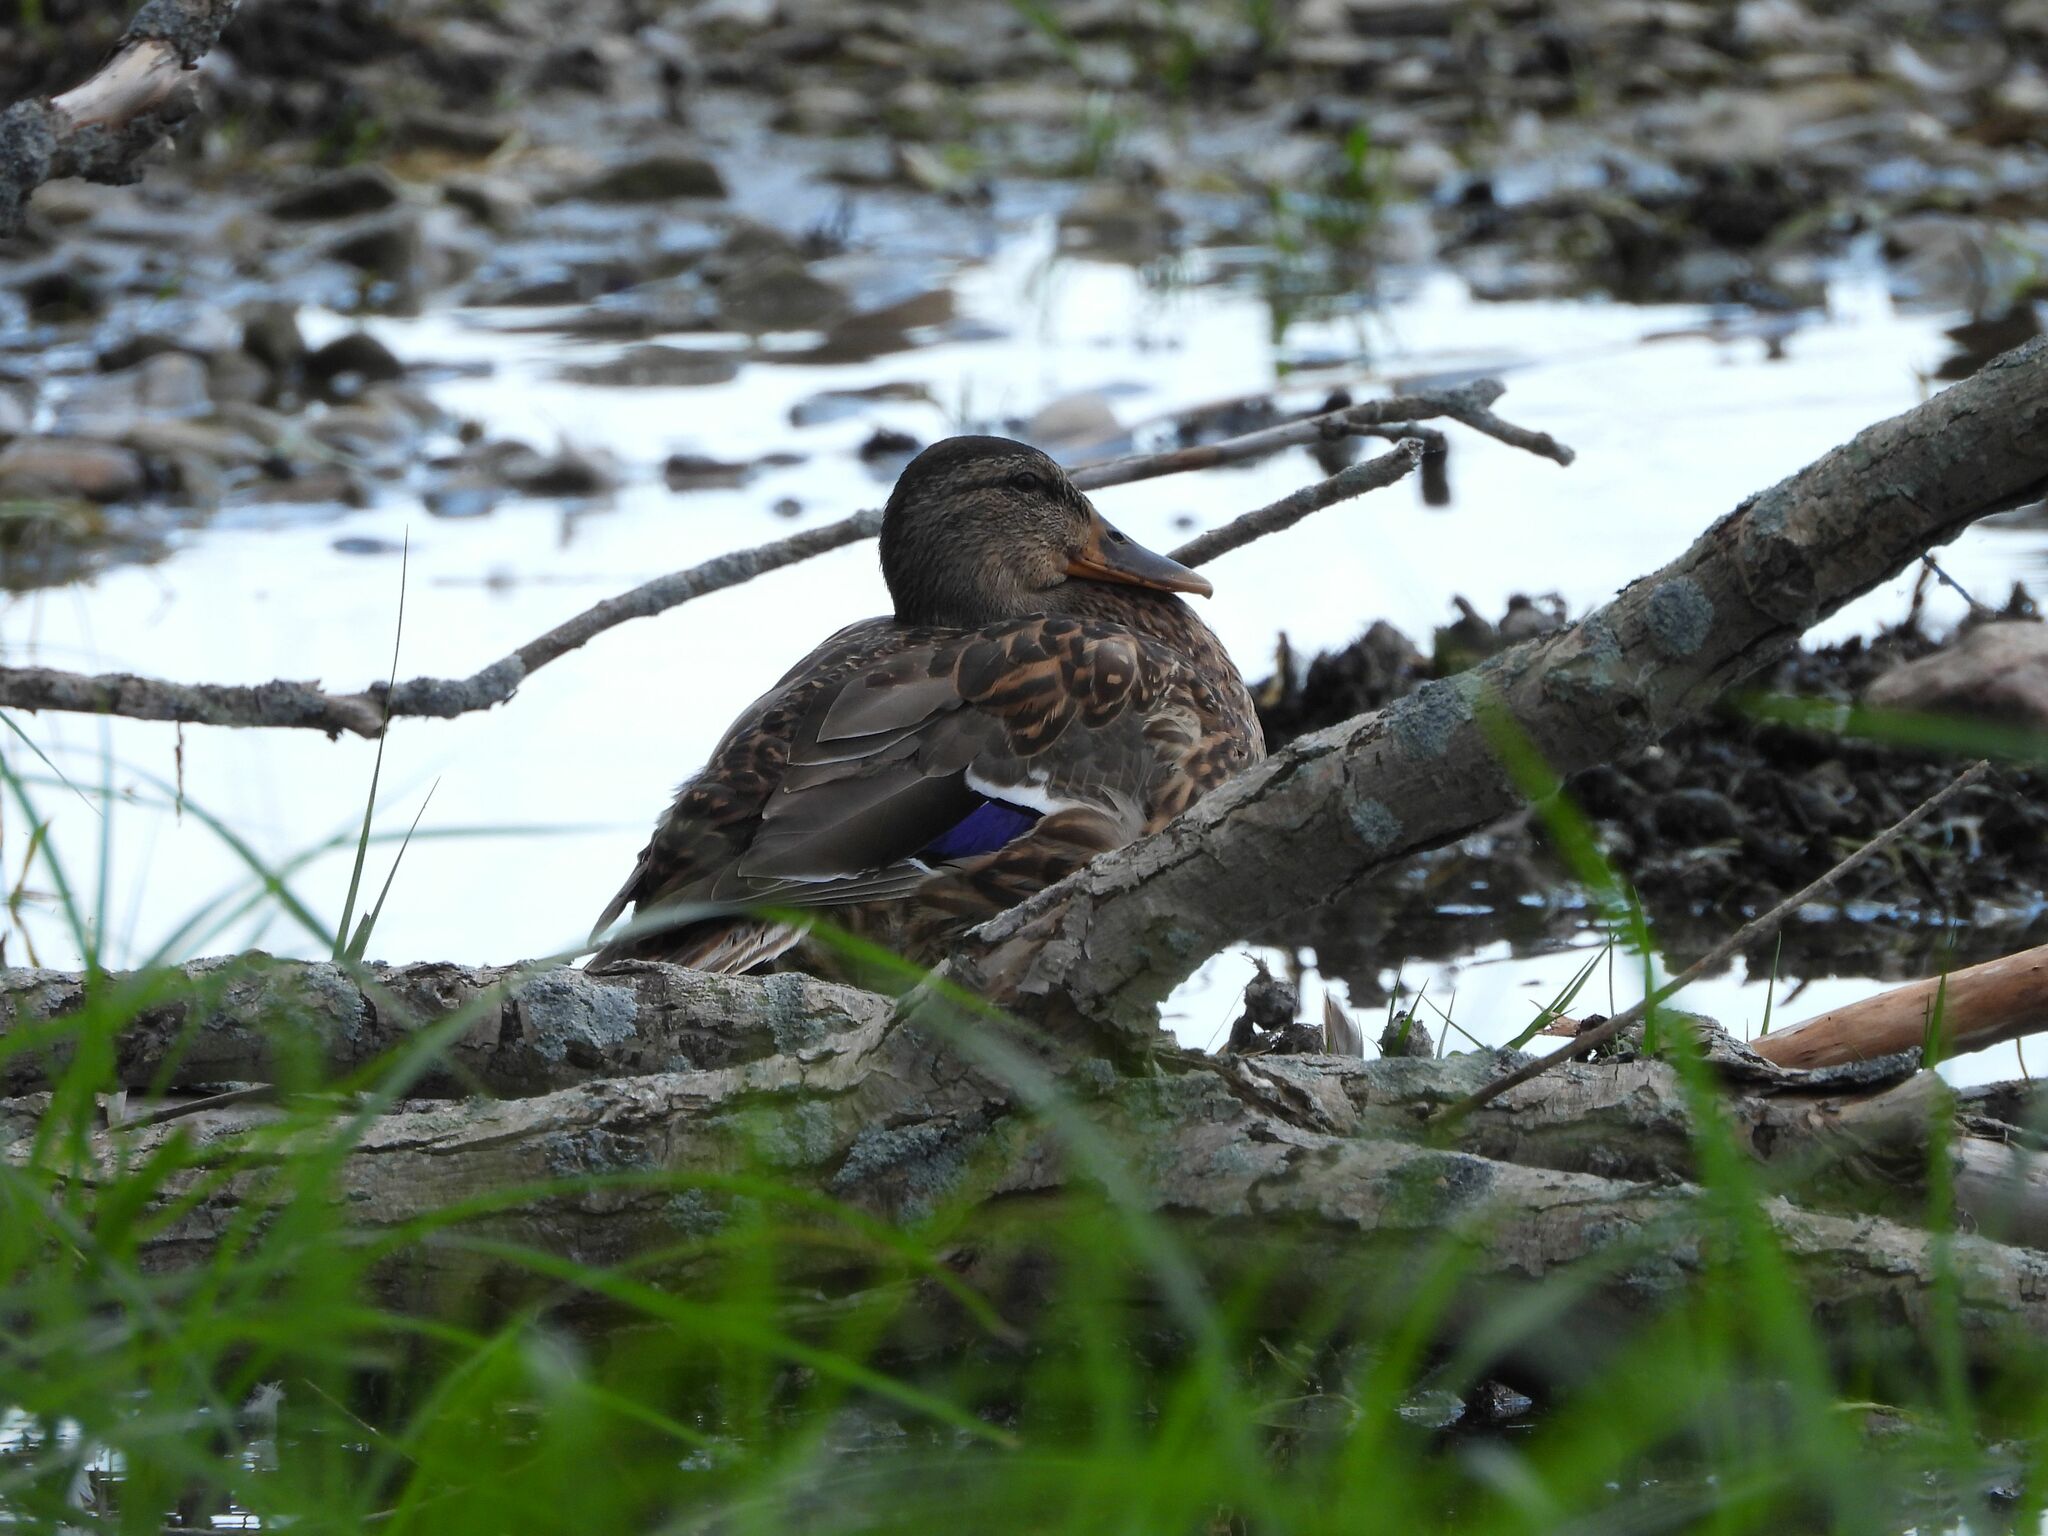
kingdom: Animalia
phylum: Chordata
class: Aves
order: Anseriformes
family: Anatidae
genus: Anas
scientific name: Anas platyrhynchos
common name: Mallard
